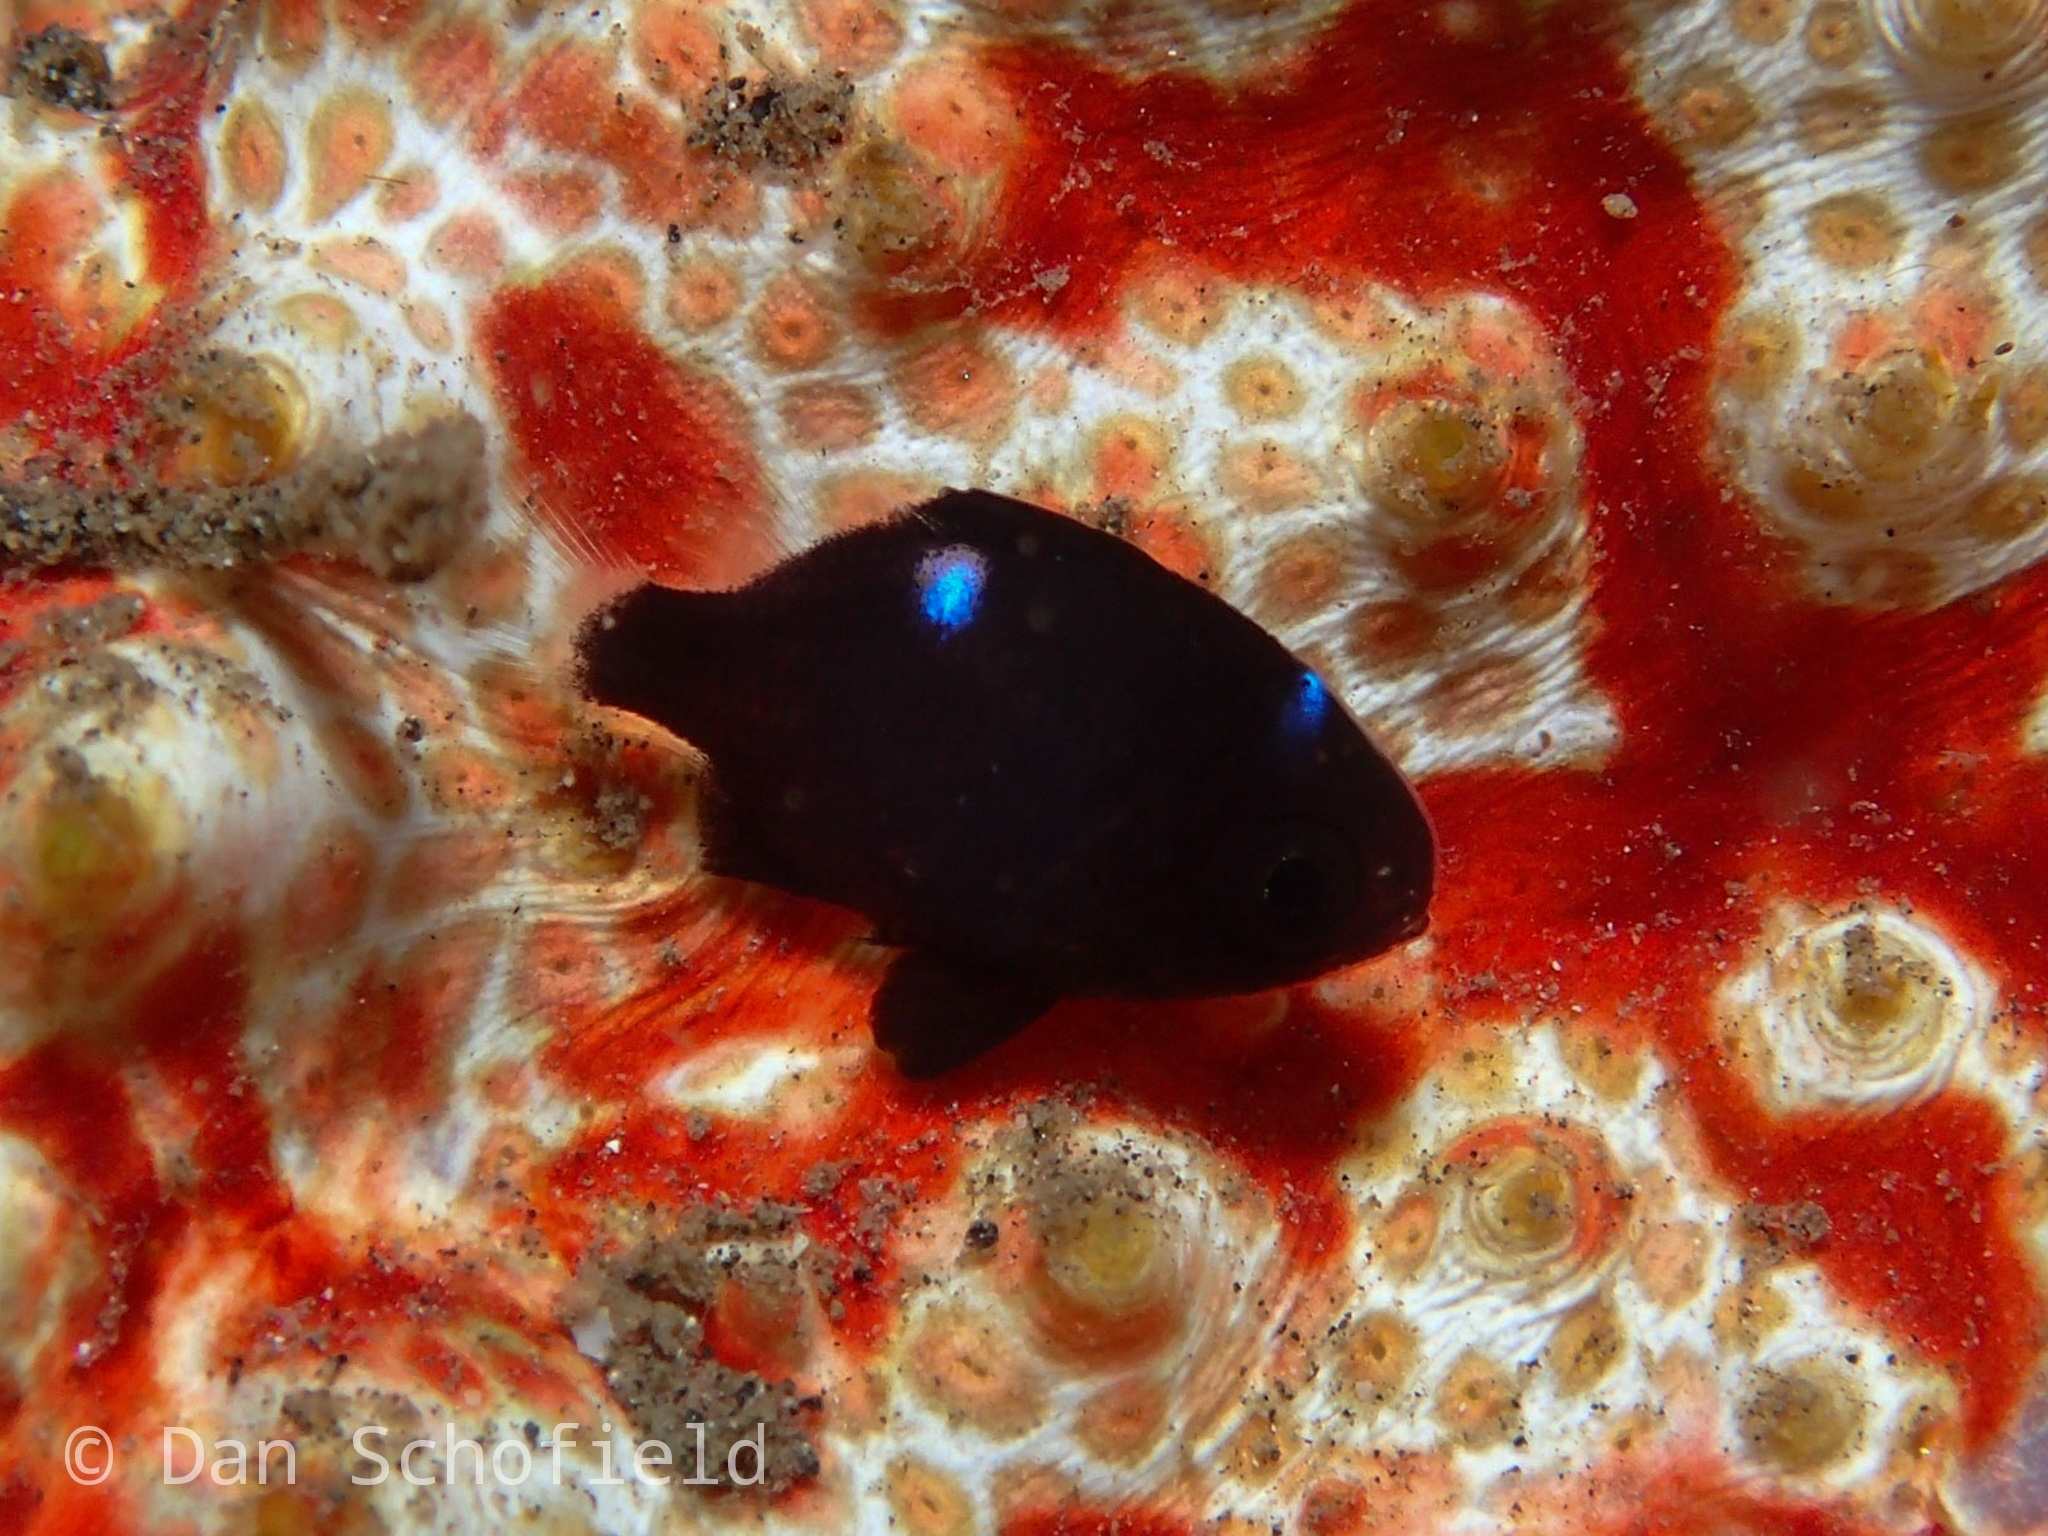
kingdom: Animalia
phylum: Chordata
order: Perciformes
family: Pomacentridae
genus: Dascyllus
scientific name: Dascyllus trimaculatus
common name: Threespot dascyllus
